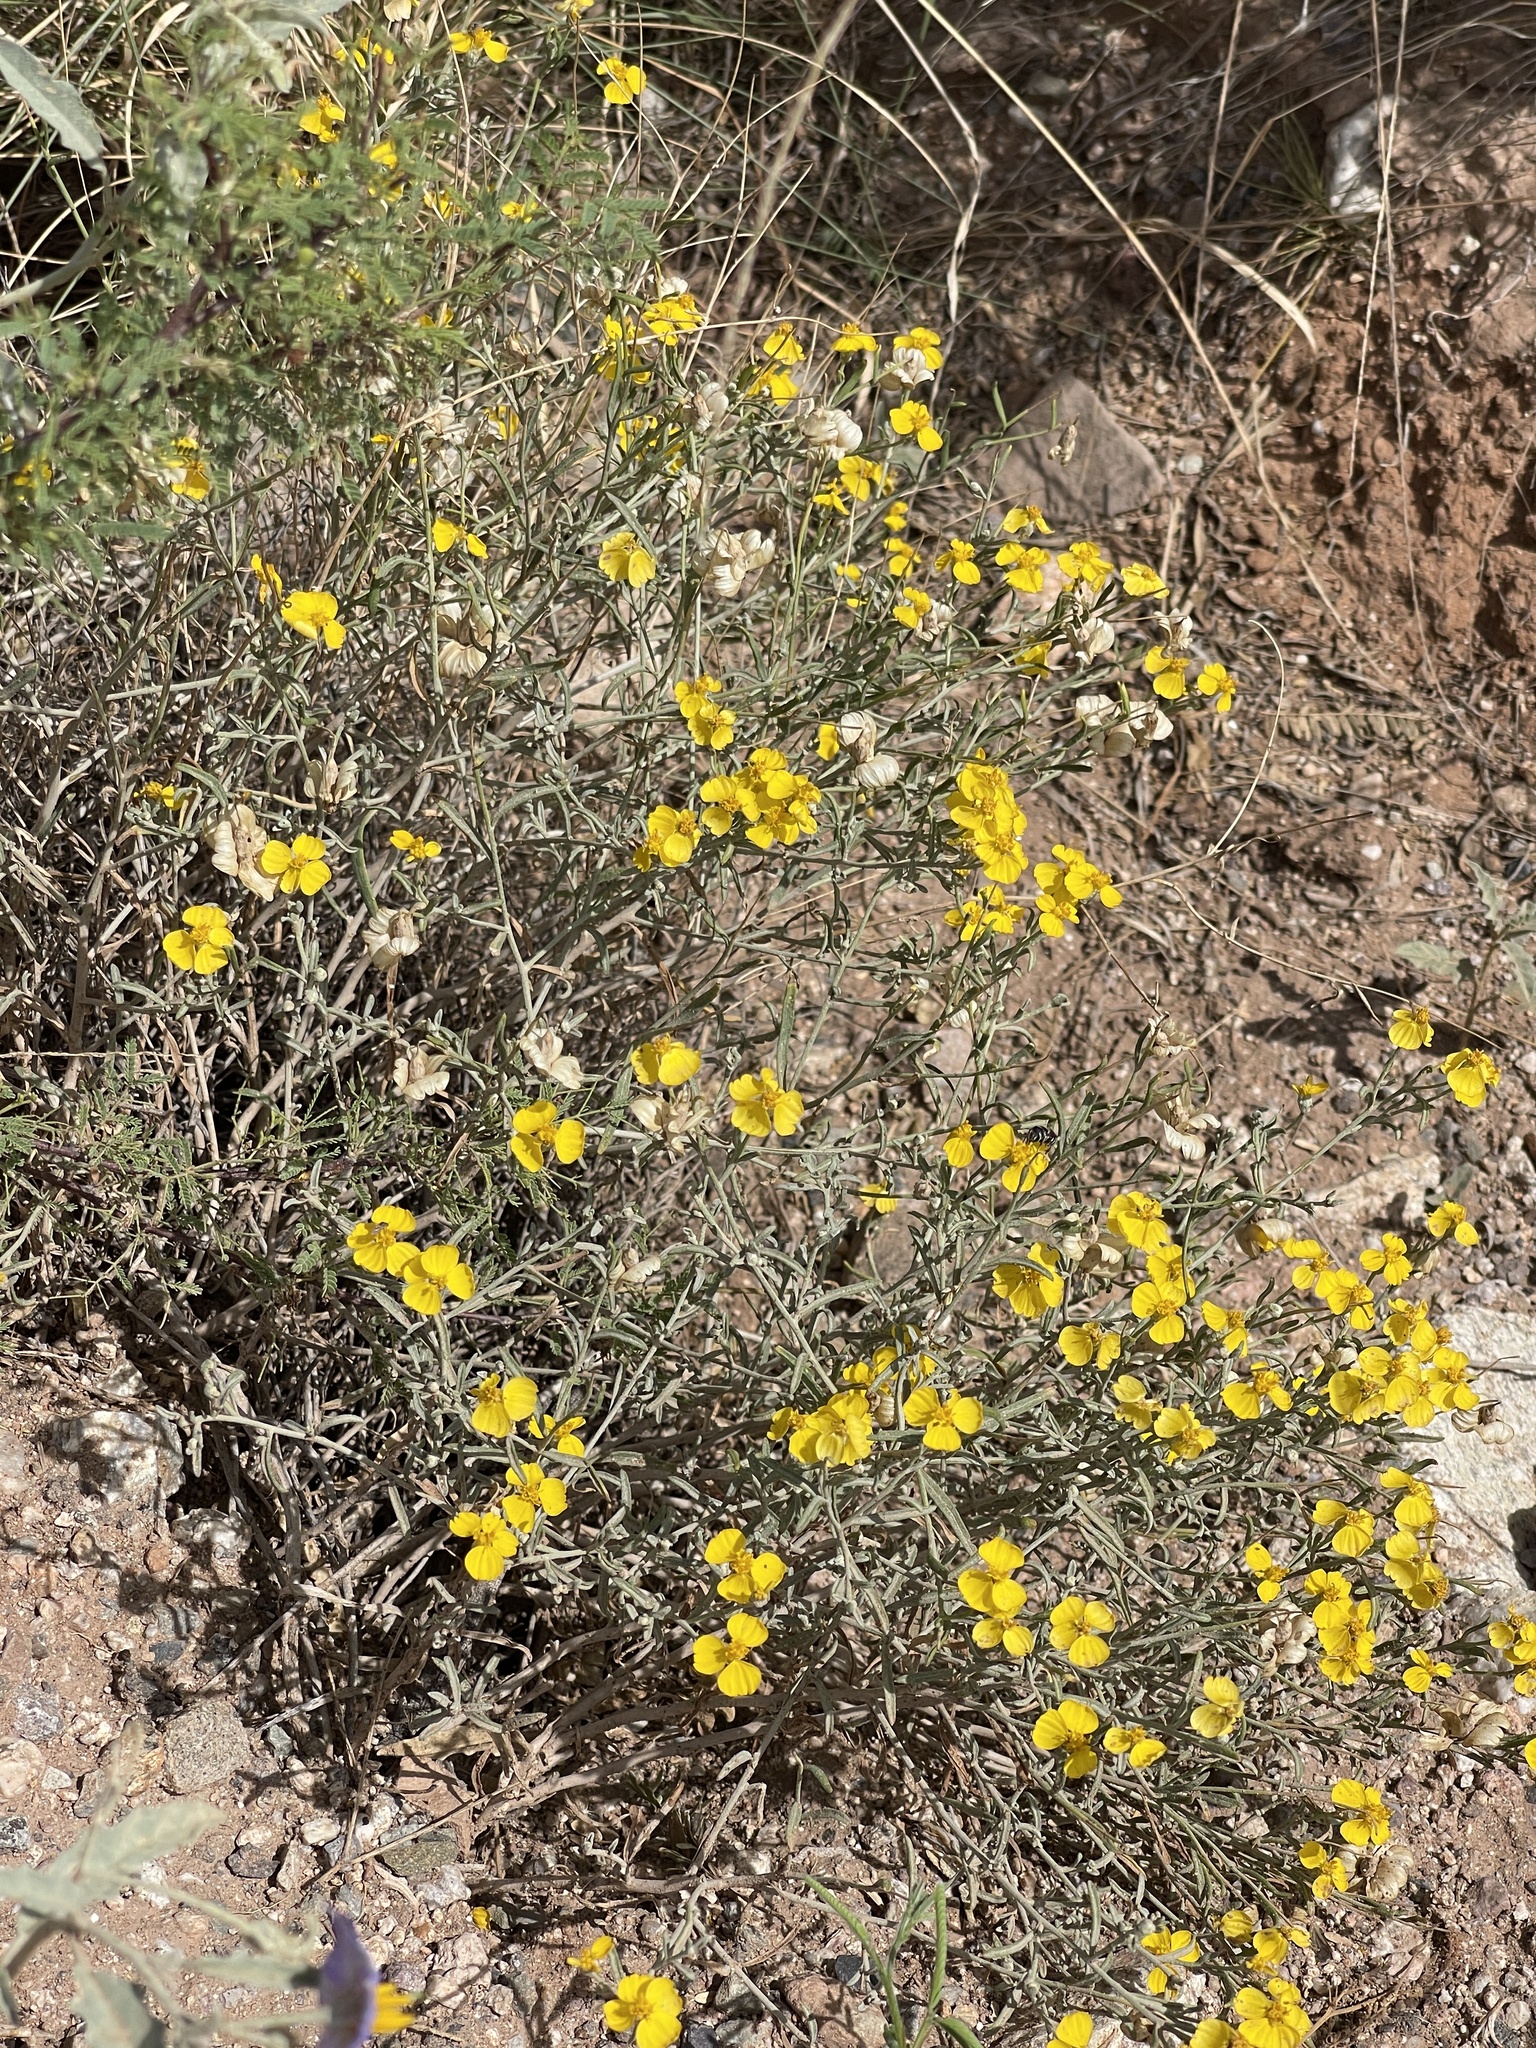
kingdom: Plantae
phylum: Tracheophyta
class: Magnoliopsida
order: Asterales
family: Asteraceae
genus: Psilostrophe
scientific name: Psilostrophe cooperi
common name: White-stem paper-flower
